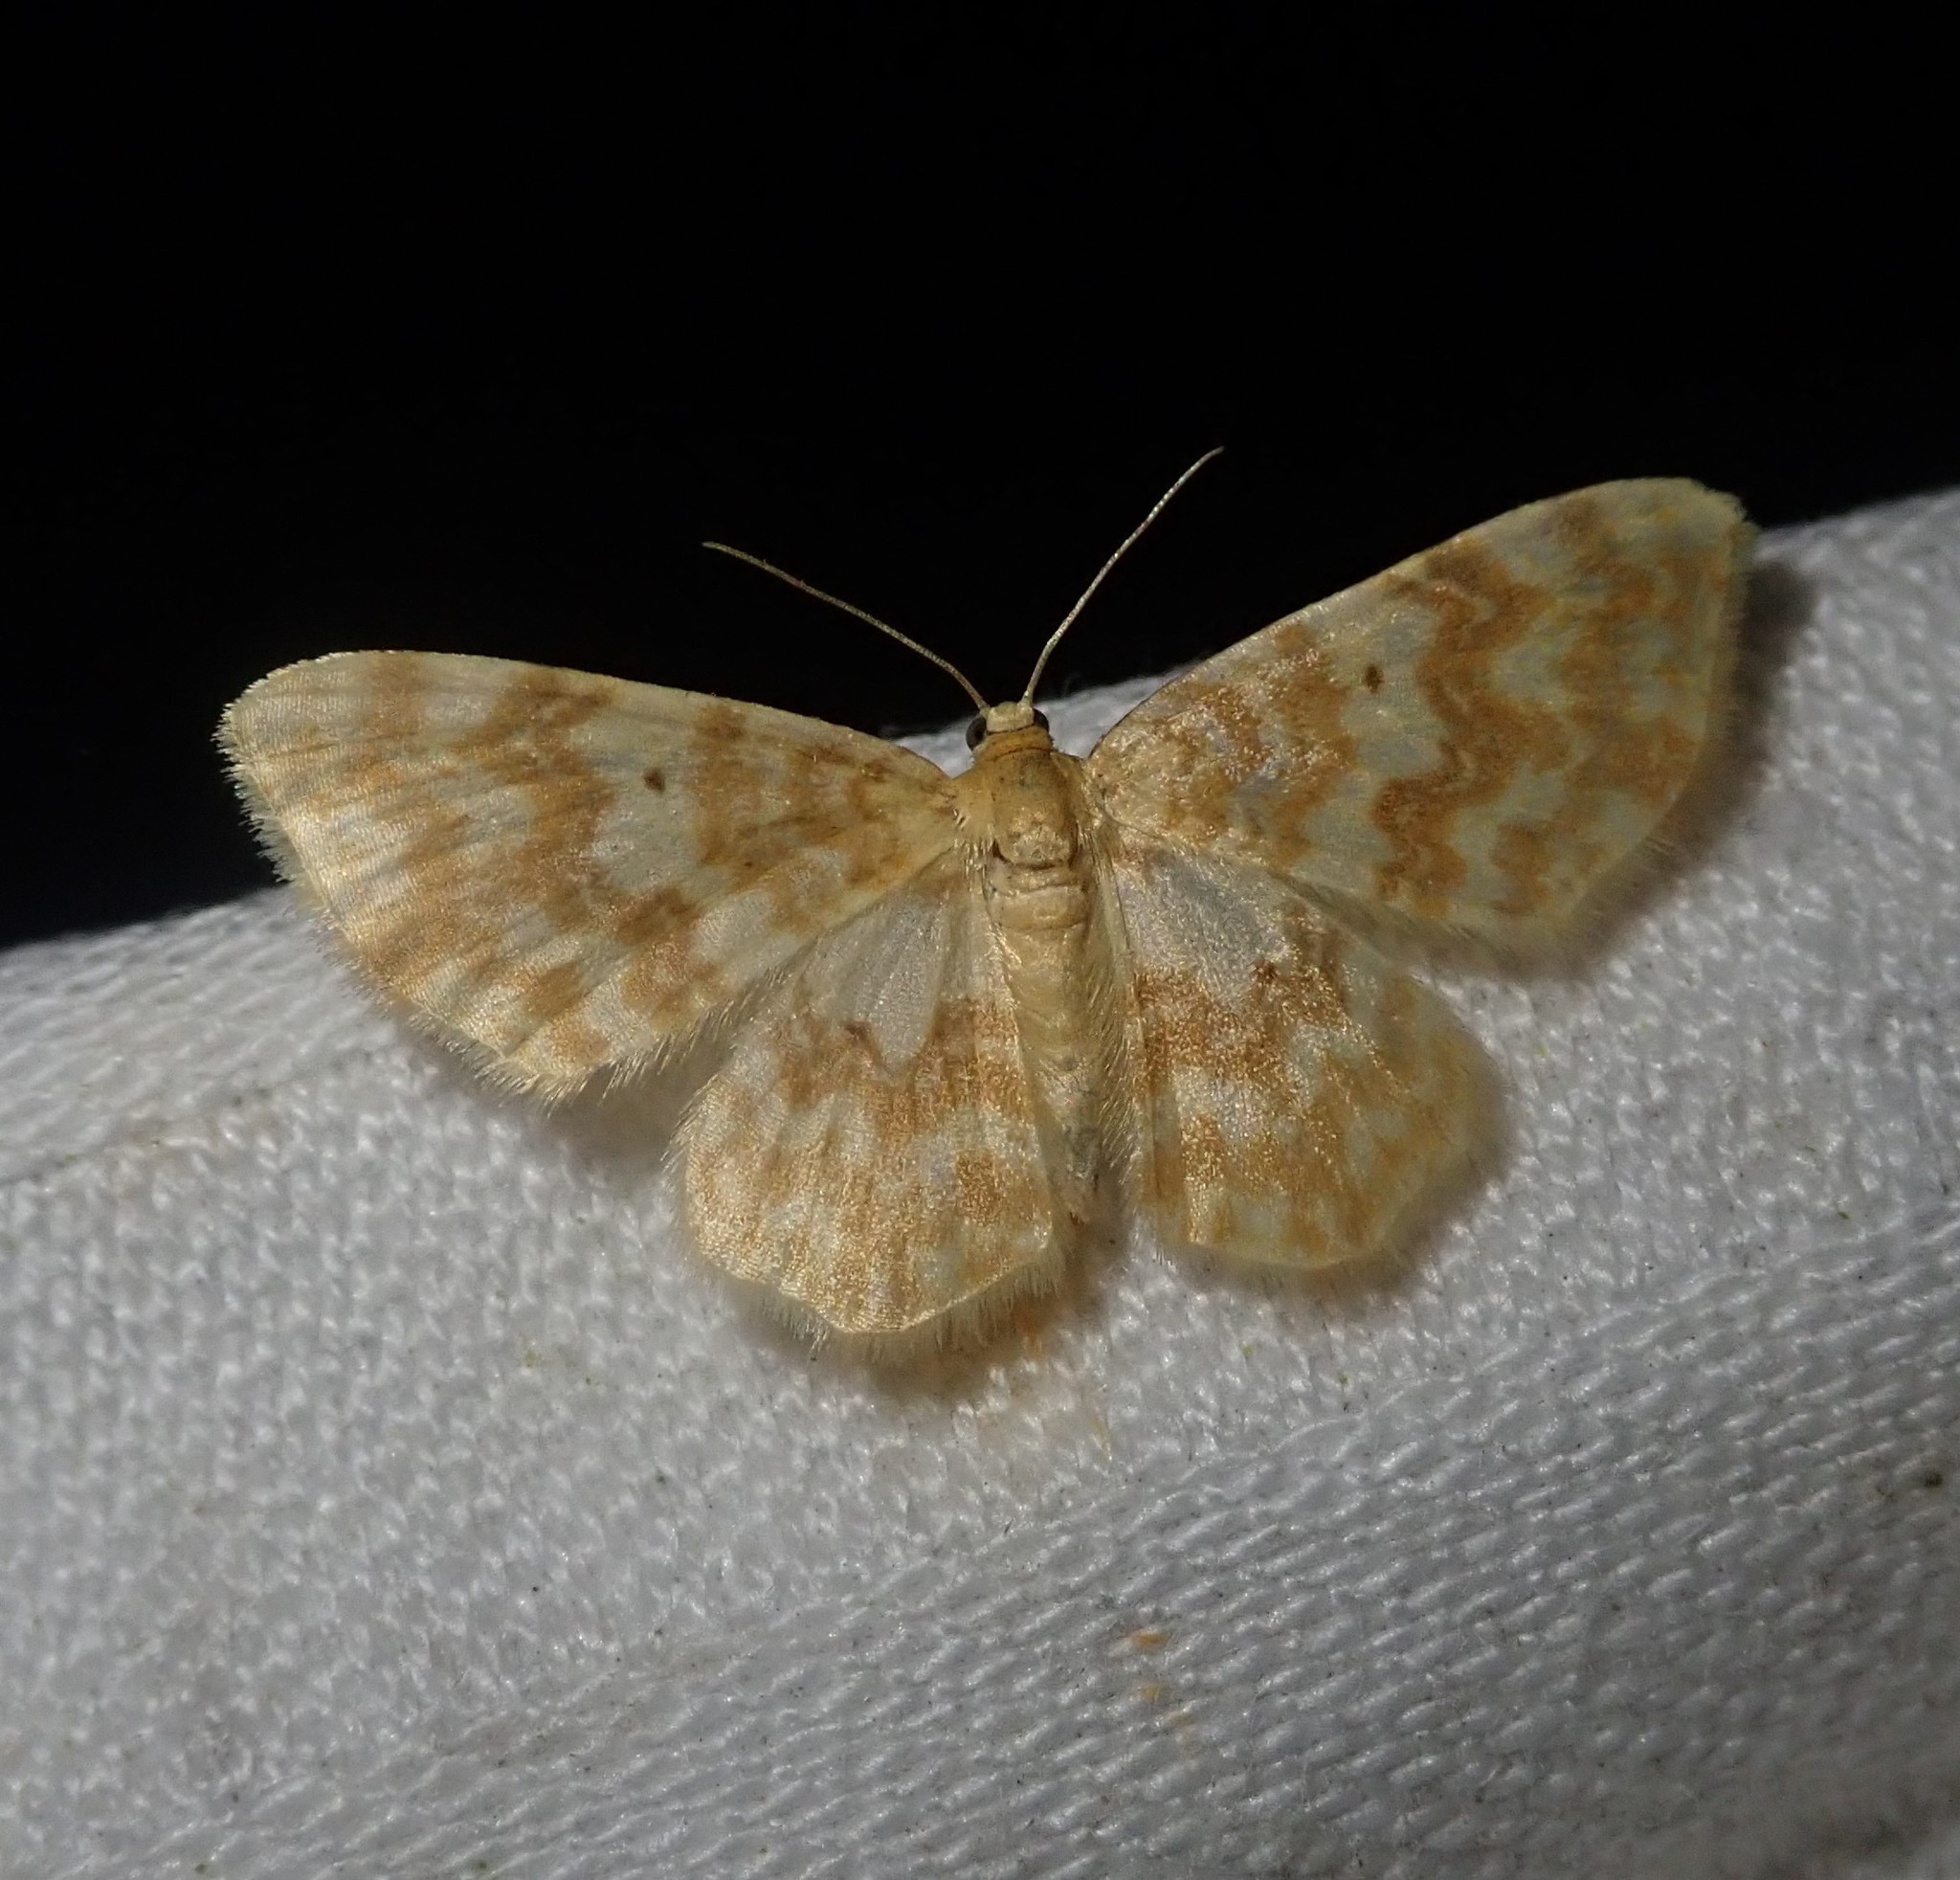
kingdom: Animalia
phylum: Arthropoda
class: Insecta
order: Lepidoptera
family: Geometridae
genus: Hydrelia
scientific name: Hydrelia flammeolaria
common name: Small yellow wave
